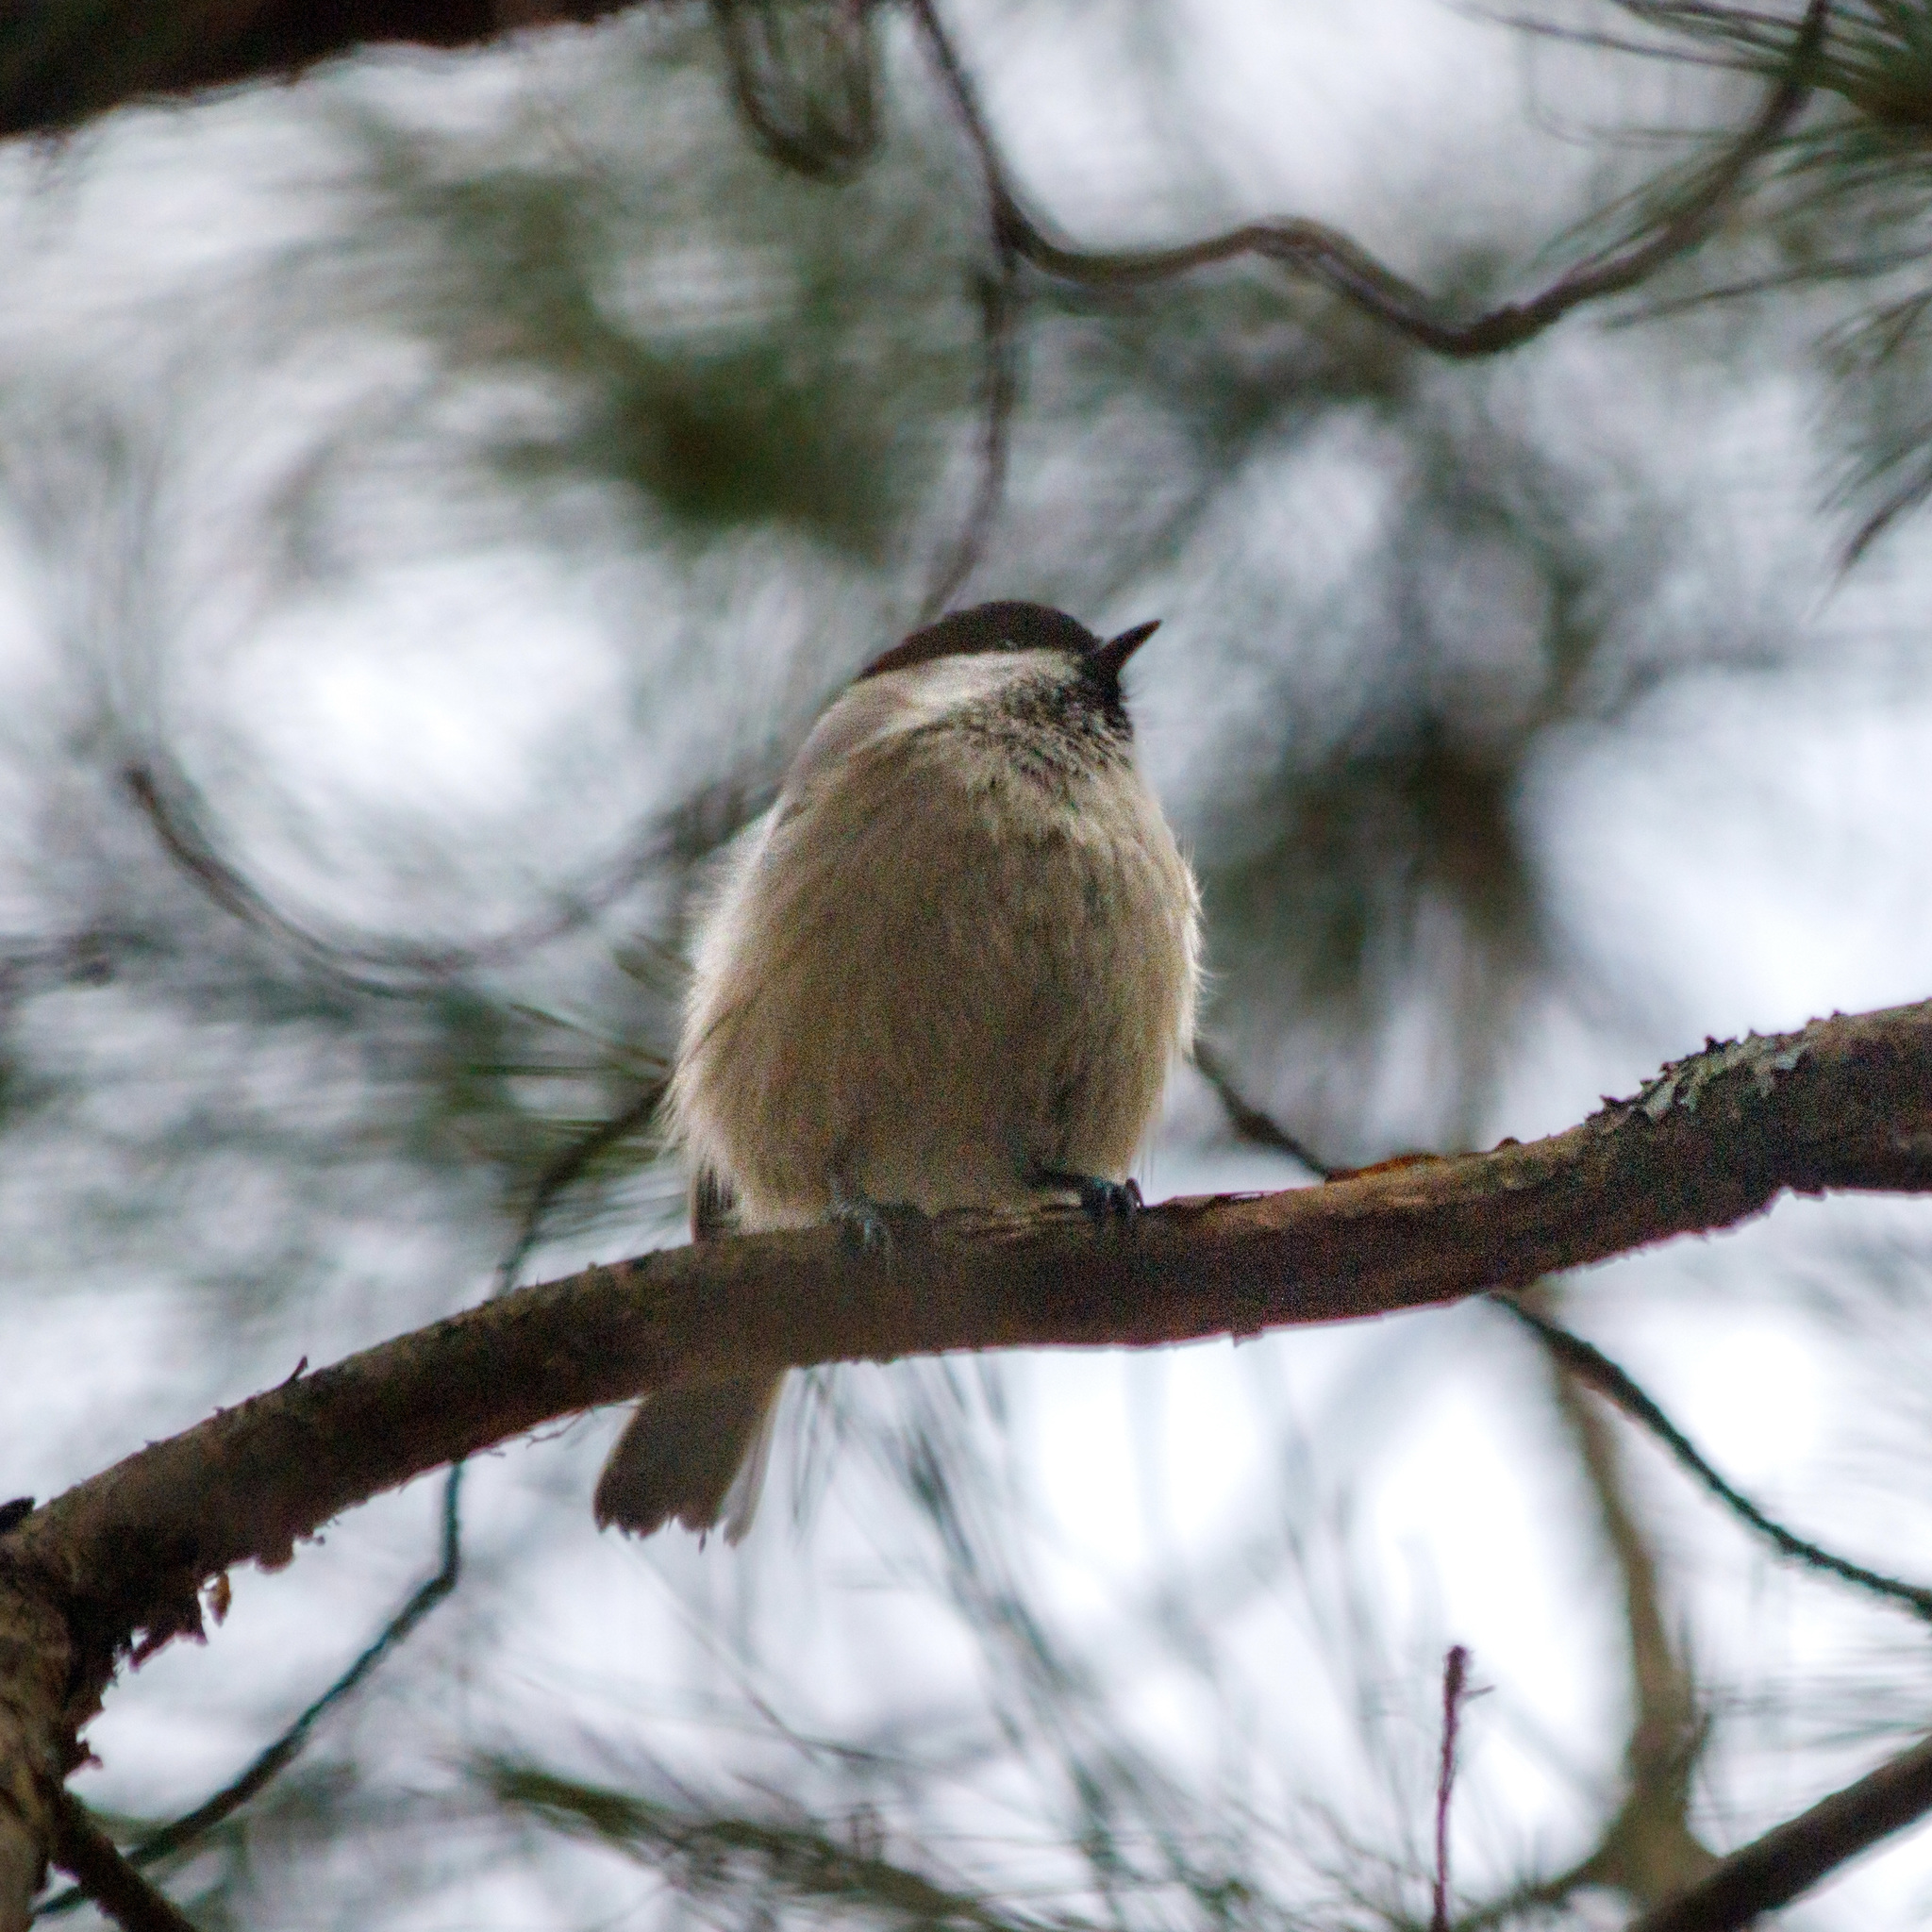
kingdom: Animalia
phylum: Chordata
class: Aves
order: Passeriformes
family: Paridae
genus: Poecile
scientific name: Poecile montanus
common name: Willow tit
